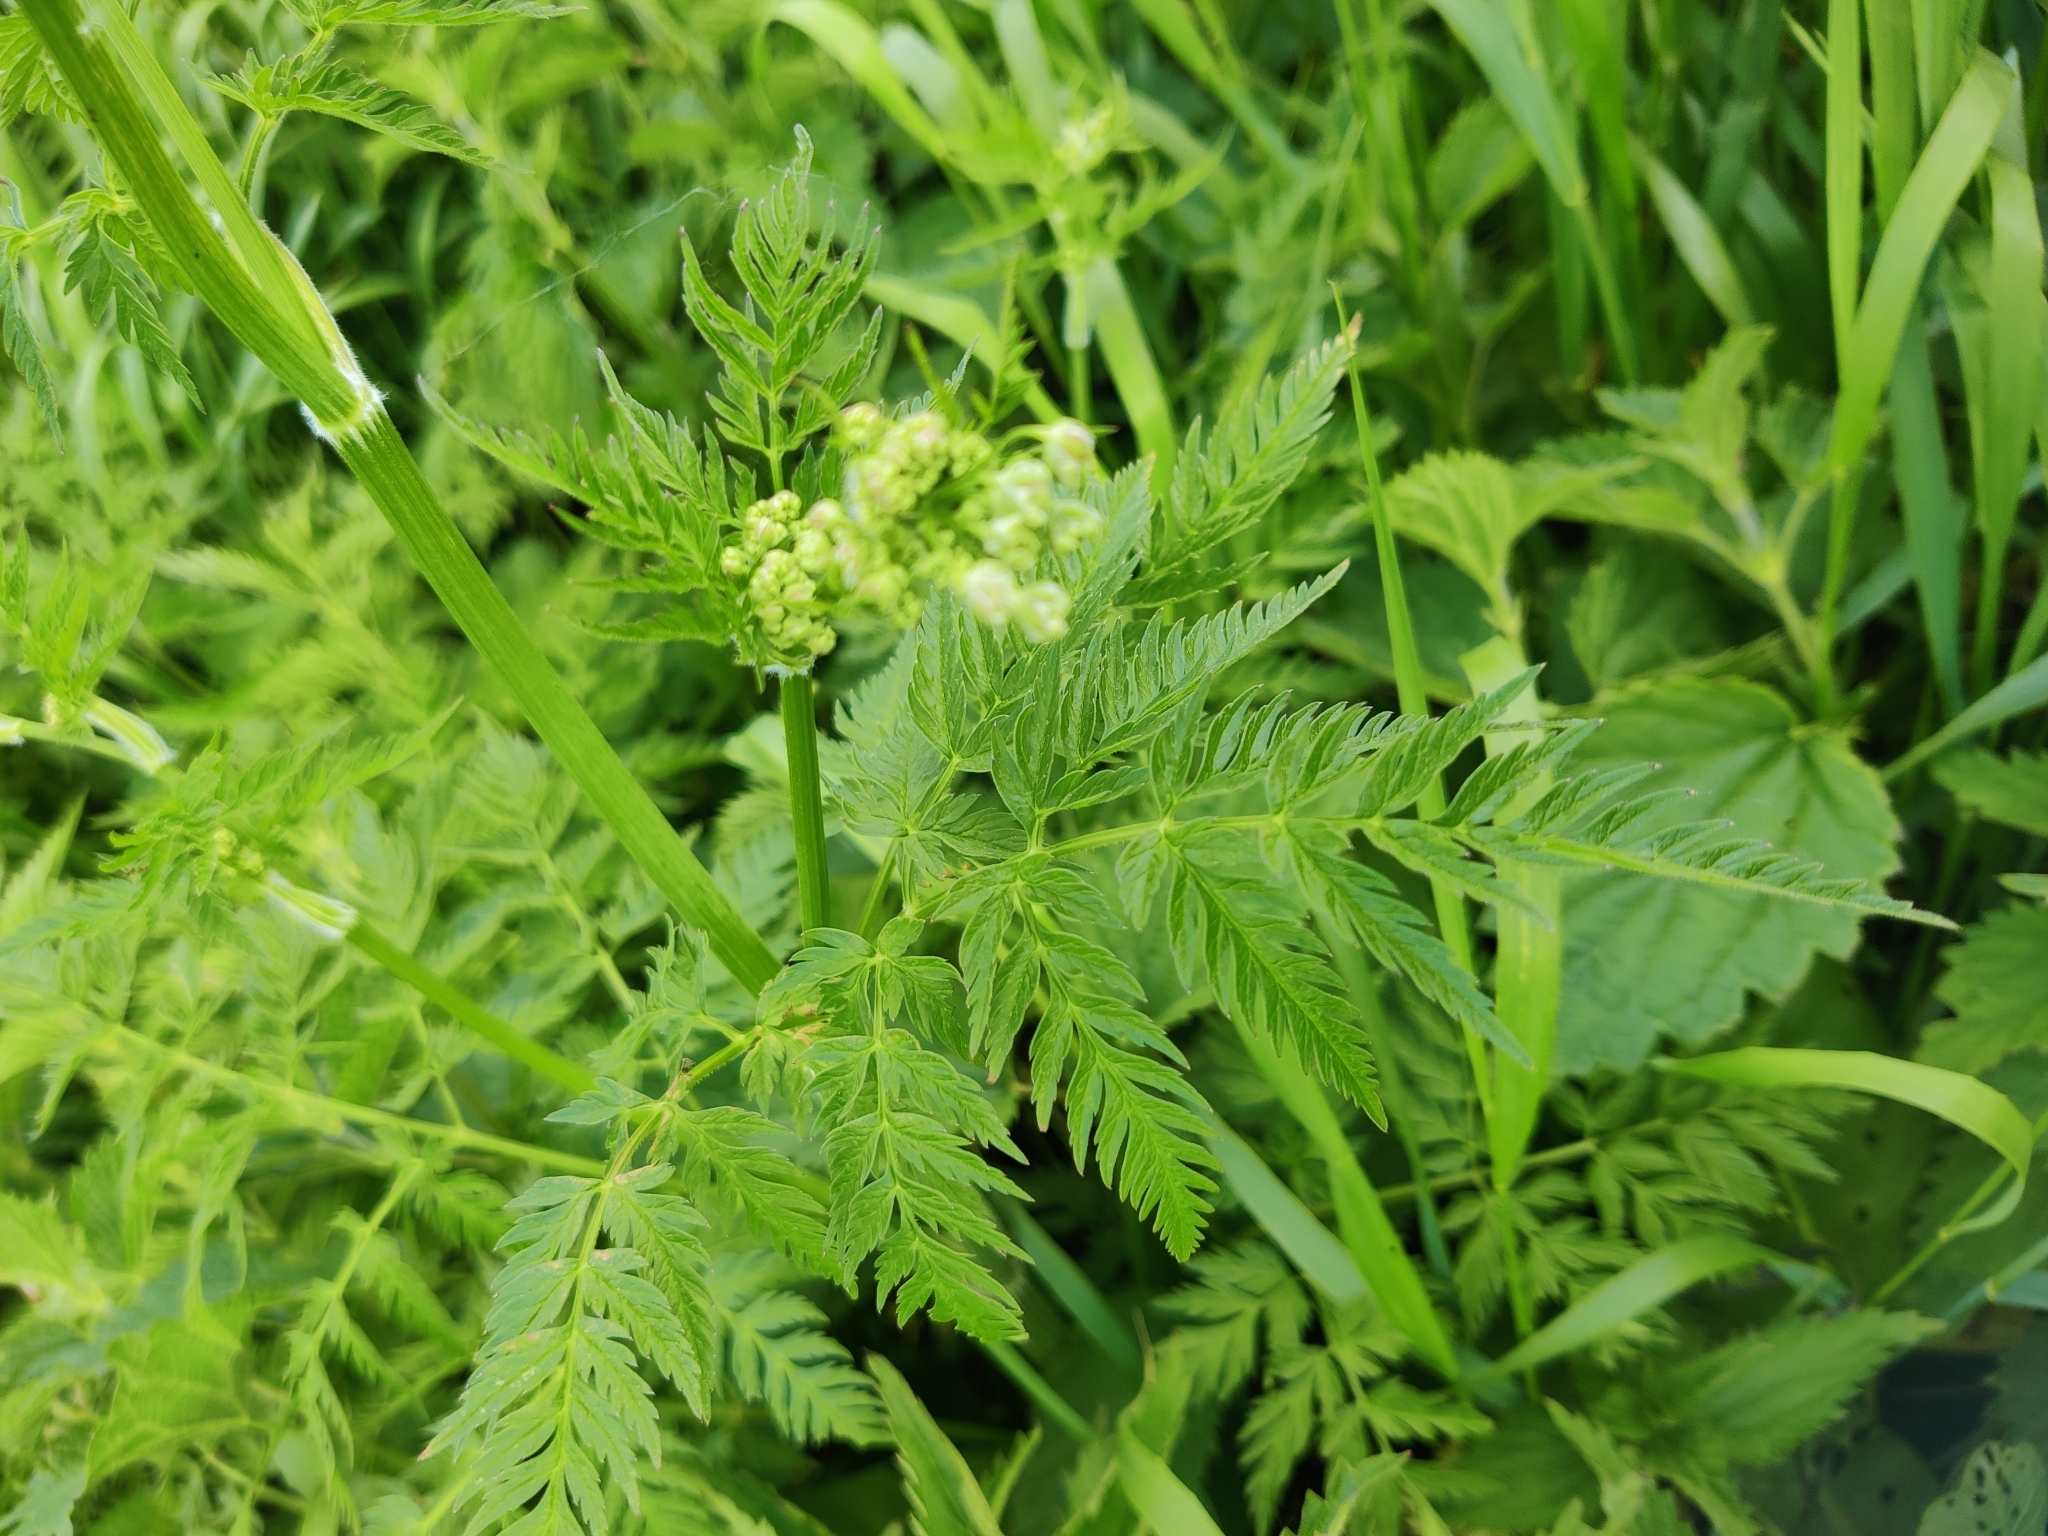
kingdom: Plantae
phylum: Tracheophyta
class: Magnoliopsida
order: Apiales
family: Apiaceae
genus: Anthriscus
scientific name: Anthriscus sylvestris
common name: Cow parsley
